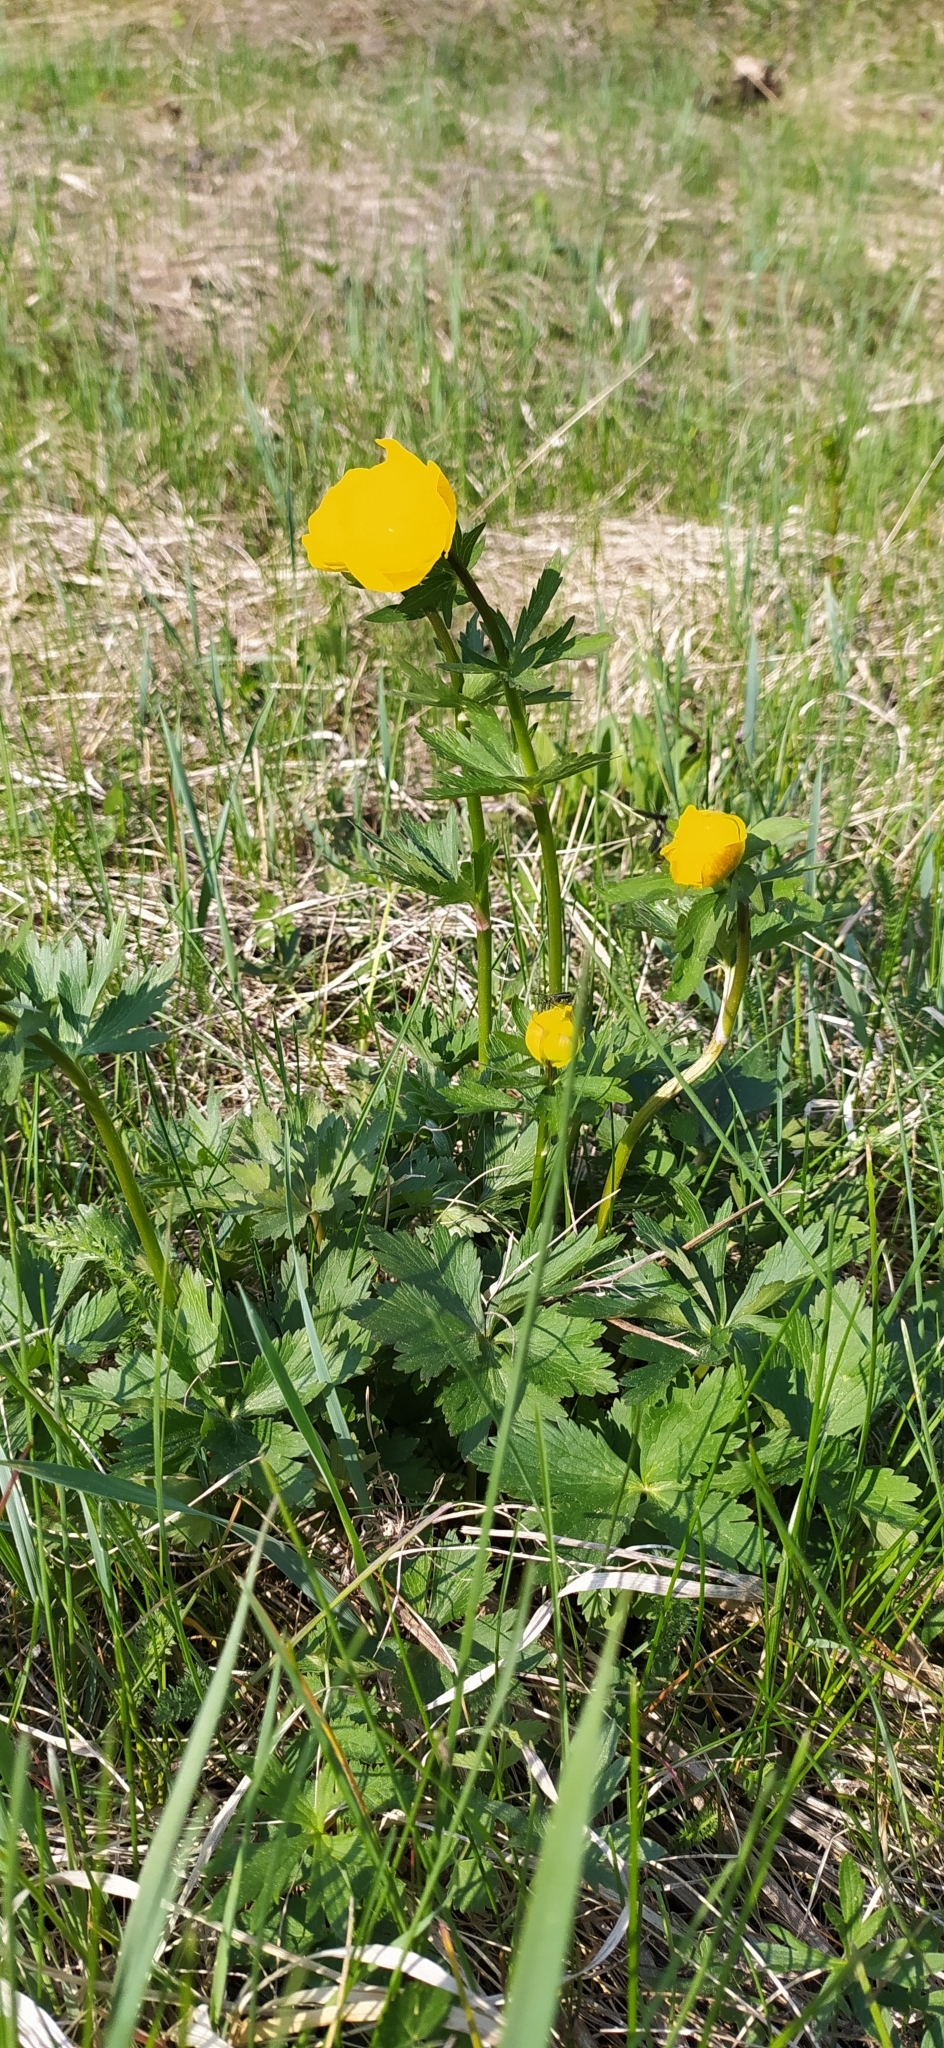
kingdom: Plantae
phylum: Tracheophyta
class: Magnoliopsida
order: Ranunculales
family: Ranunculaceae
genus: Trollius
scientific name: Trollius europaeus
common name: European globeflower
